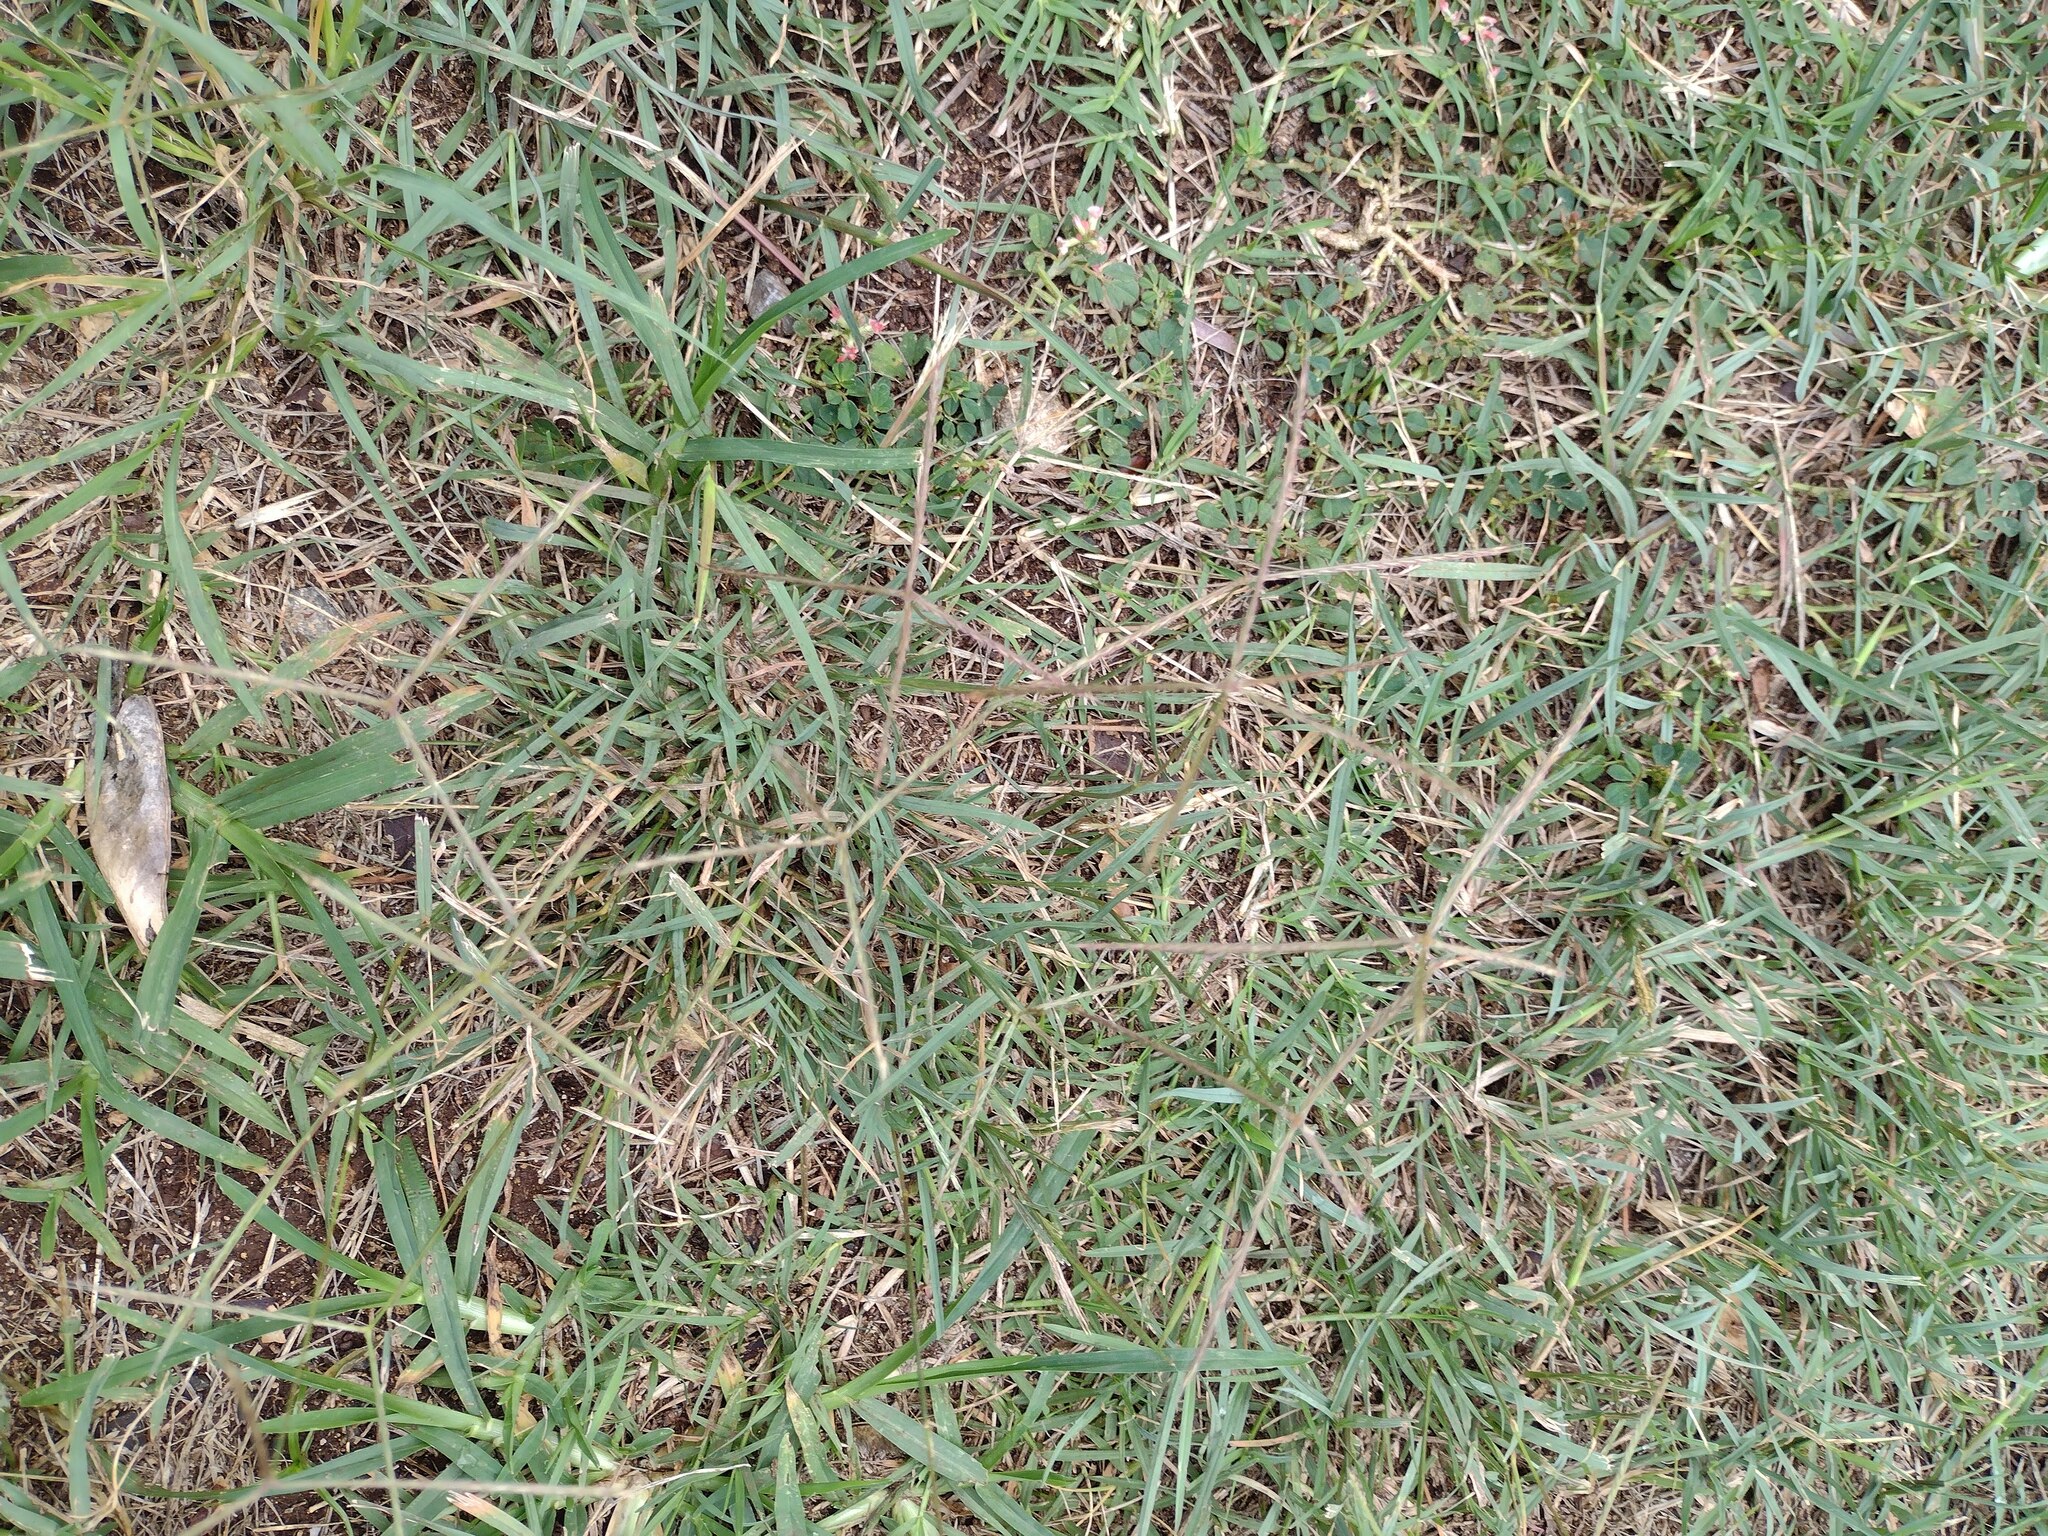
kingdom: Plantae
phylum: Tracheophyta
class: Liliopsida
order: Poales
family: Poaceae
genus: Chloris
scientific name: Chloris divaricata
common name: Spreading windmill grass
